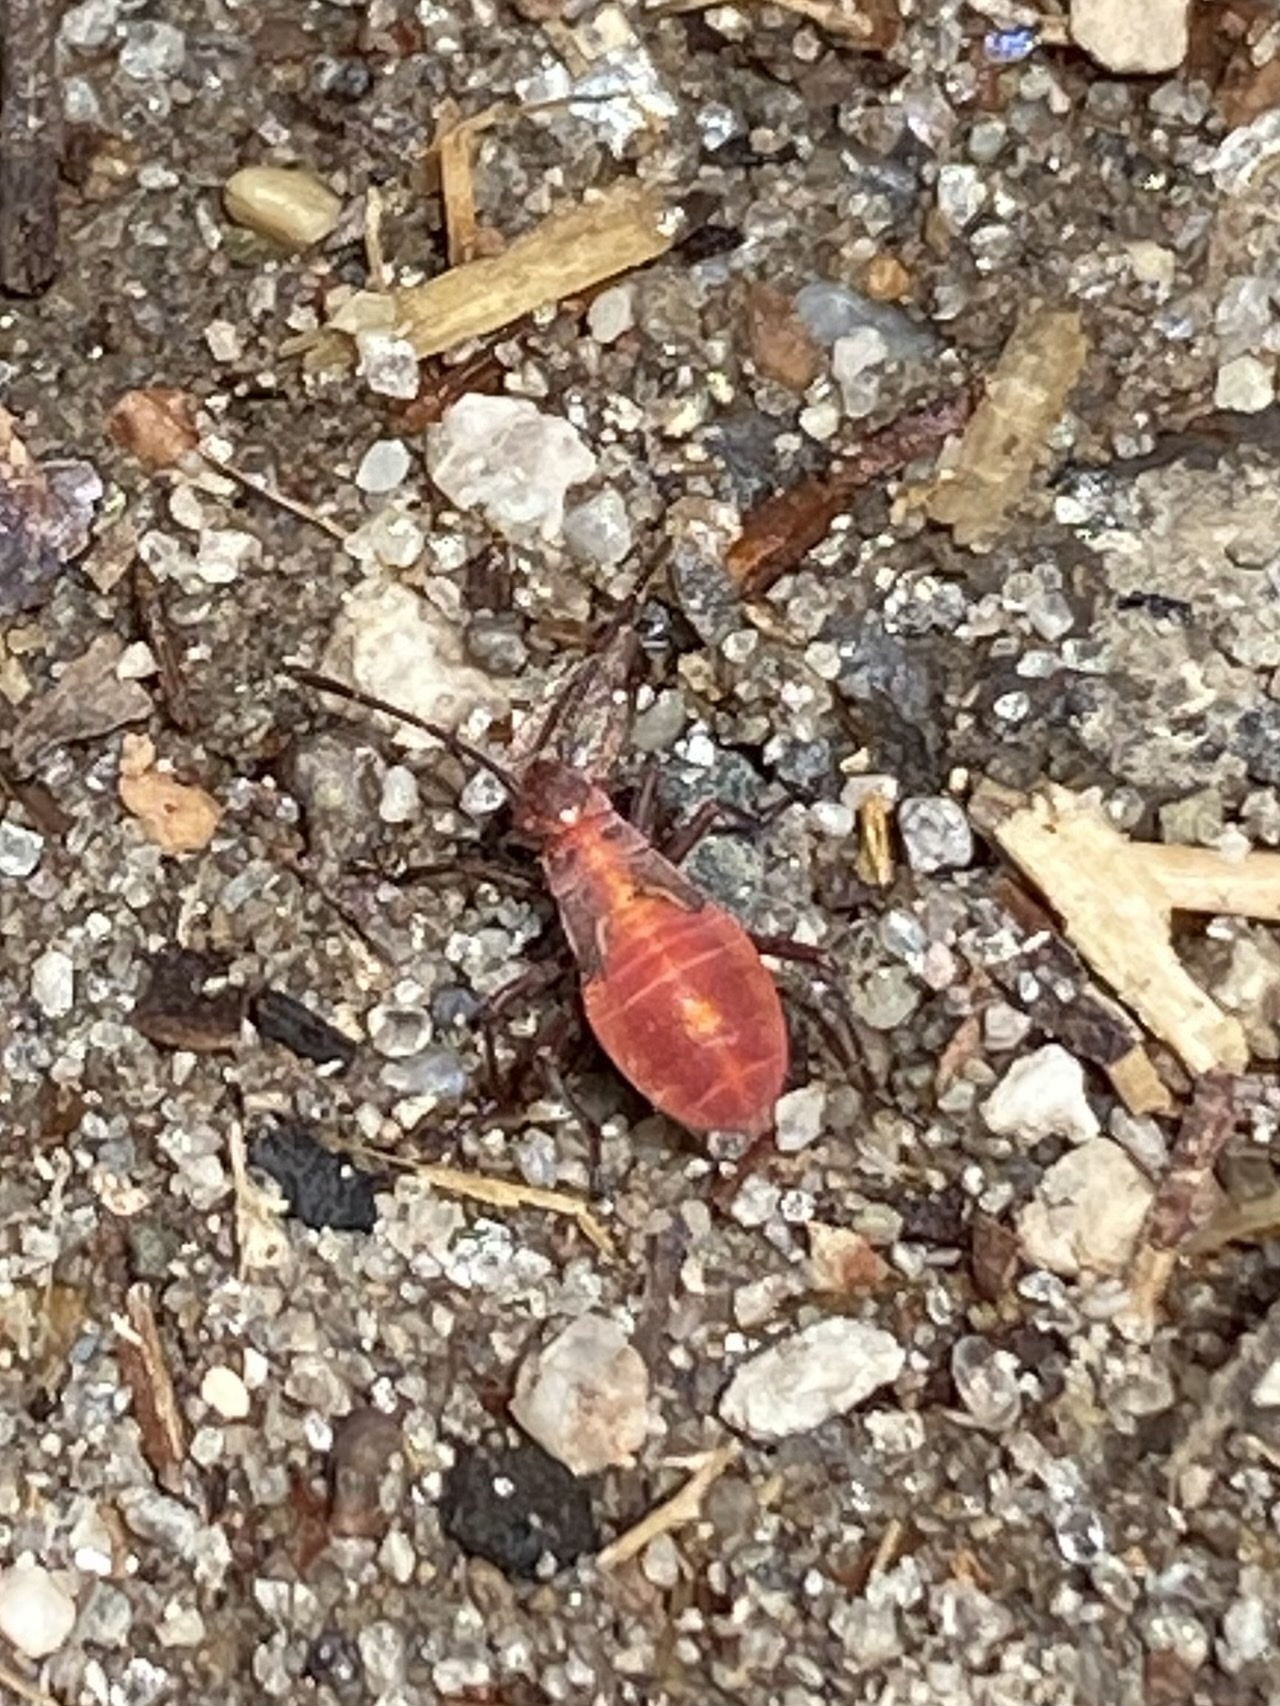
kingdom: Animalia
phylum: Arthropoda
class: Insecta
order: Hemiptera
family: Rhopalidae
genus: Boisea
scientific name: Boisea trivittata
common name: Boxelder bug
